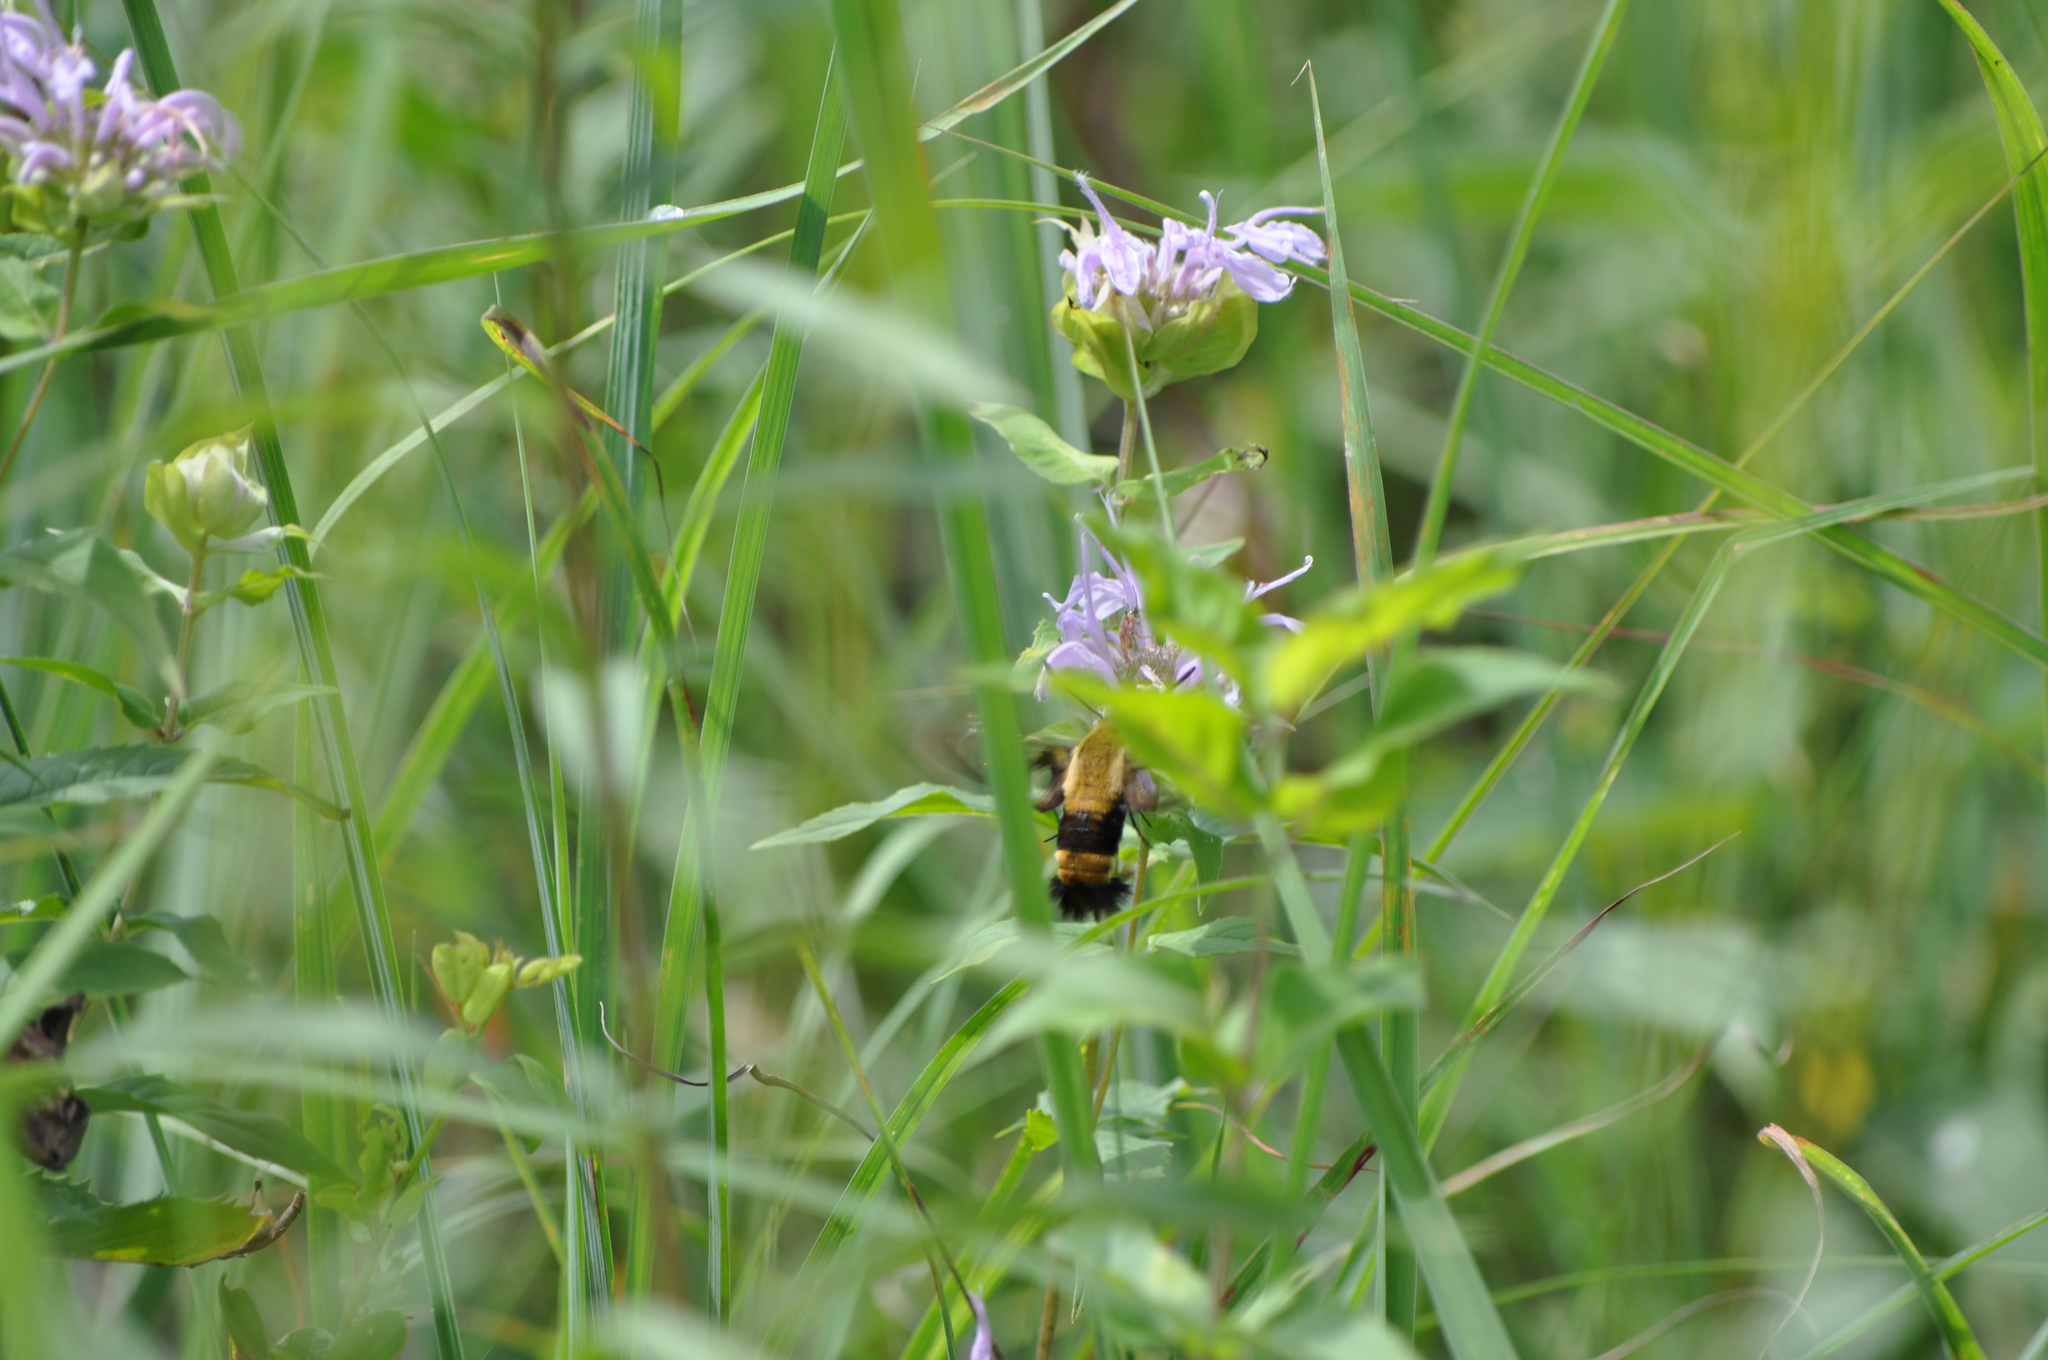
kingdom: Animalia
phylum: Arthropoda
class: Insecta
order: Lepidoptera
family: Sphingidae
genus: Hemaris
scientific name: Hemaris diffinis
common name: Bumblebee moth
